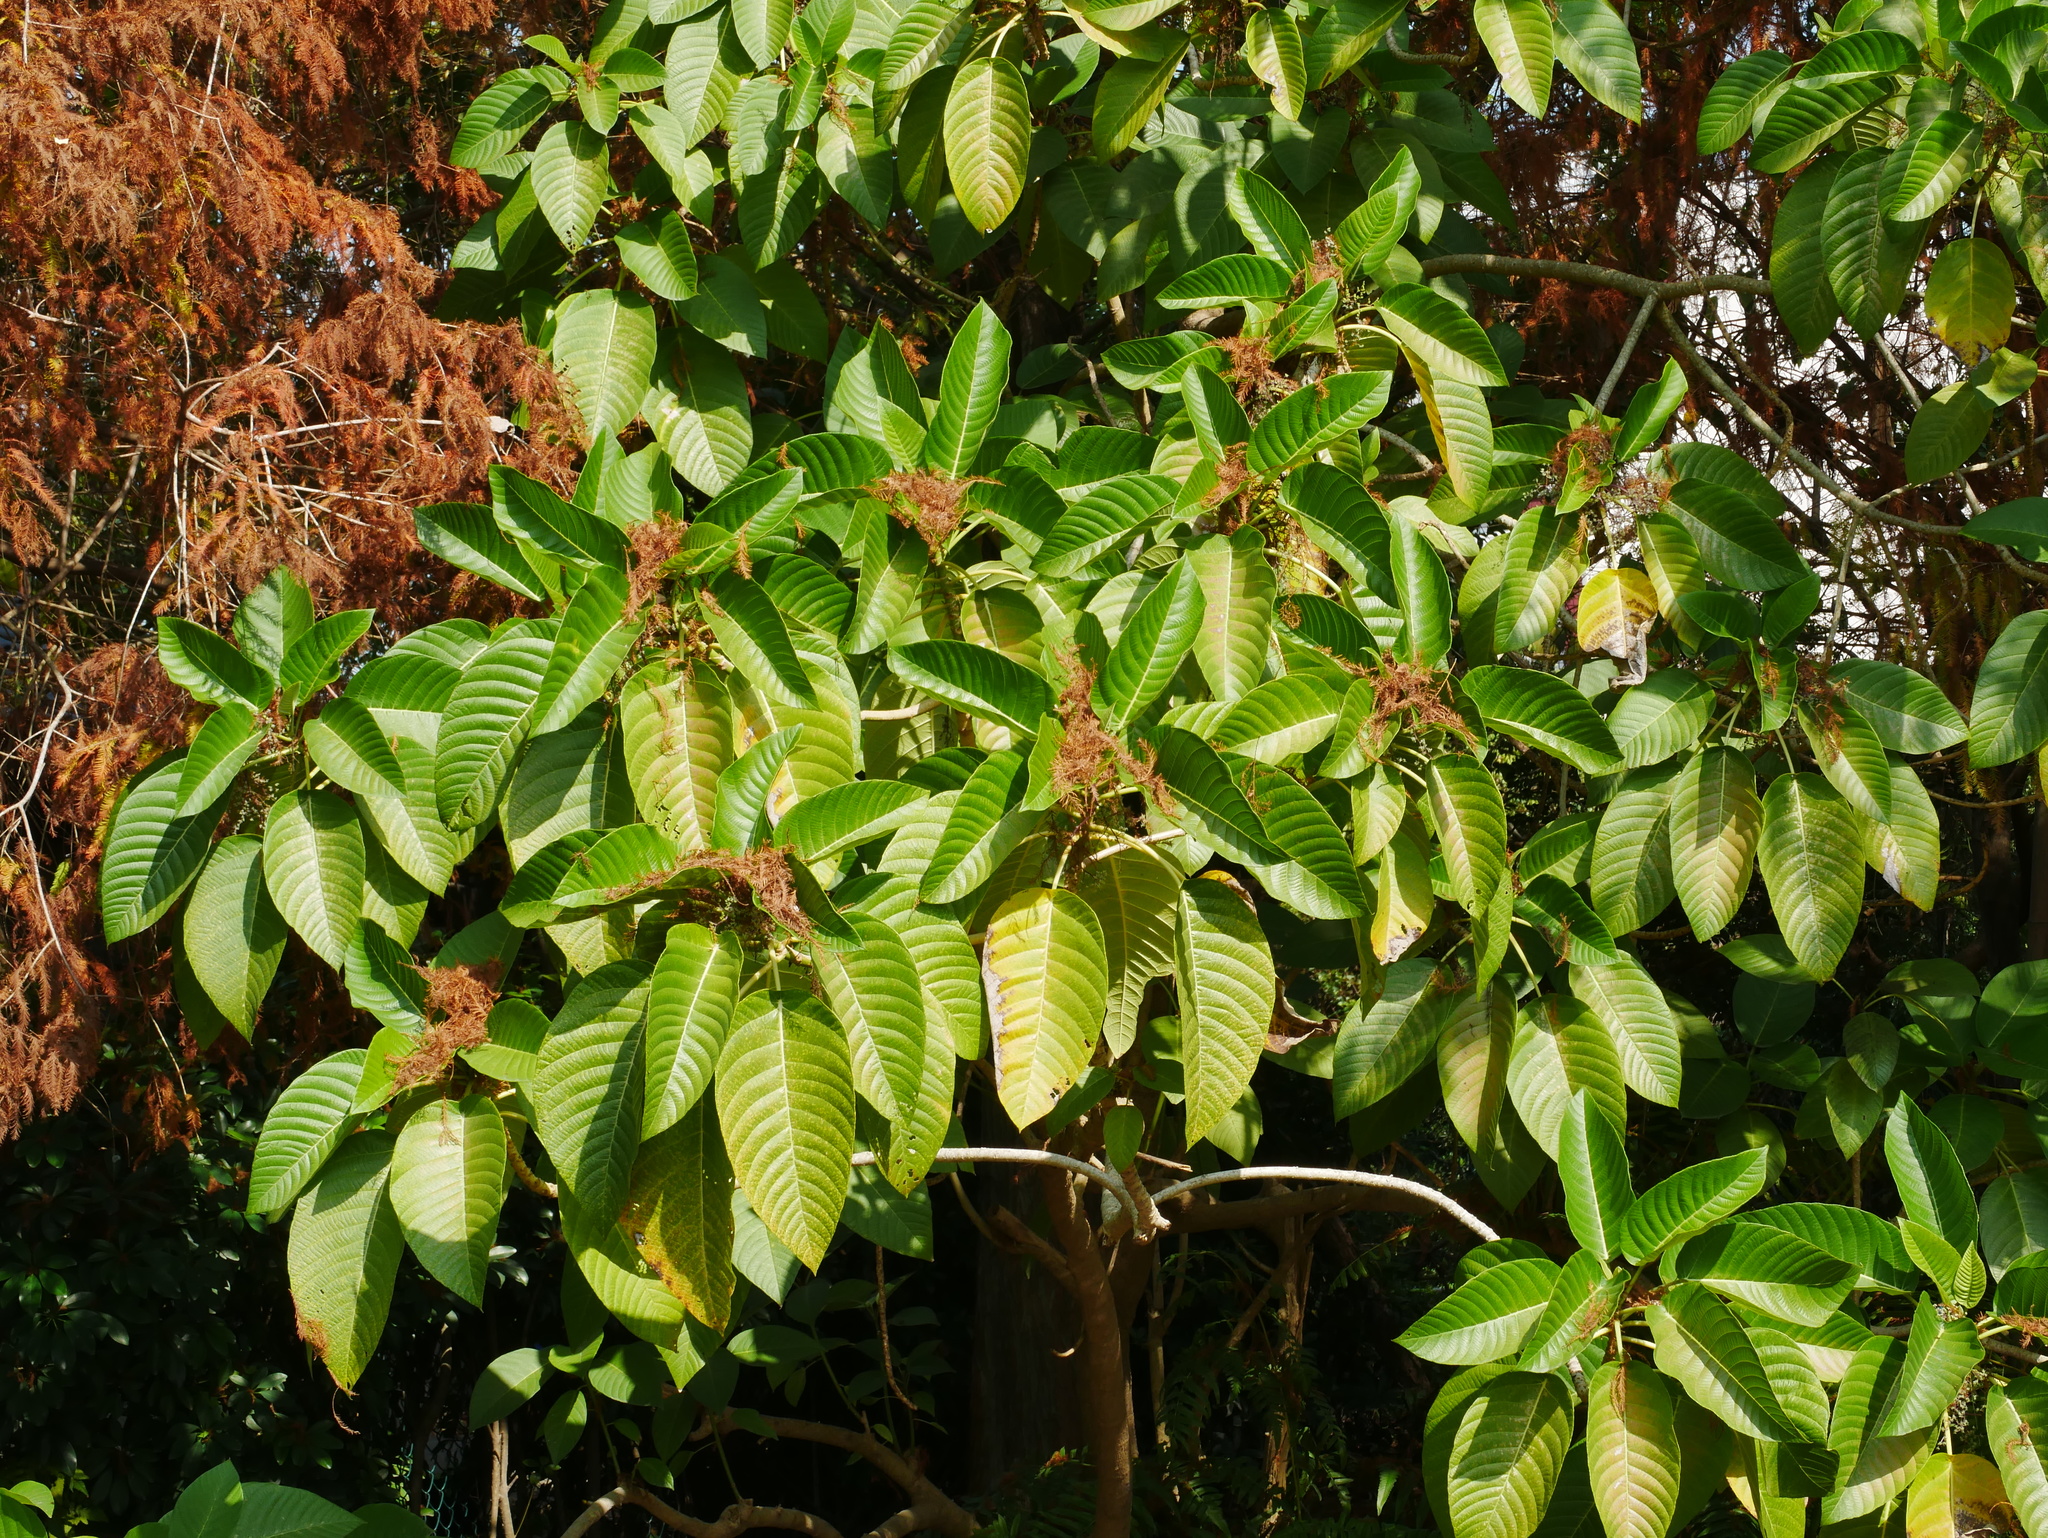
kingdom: Plantae
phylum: Tracheophyta
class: Magnoliopsida
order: Rosales
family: Urticaceae
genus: Dendrocnide
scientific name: Dendrocnide meyeniana
